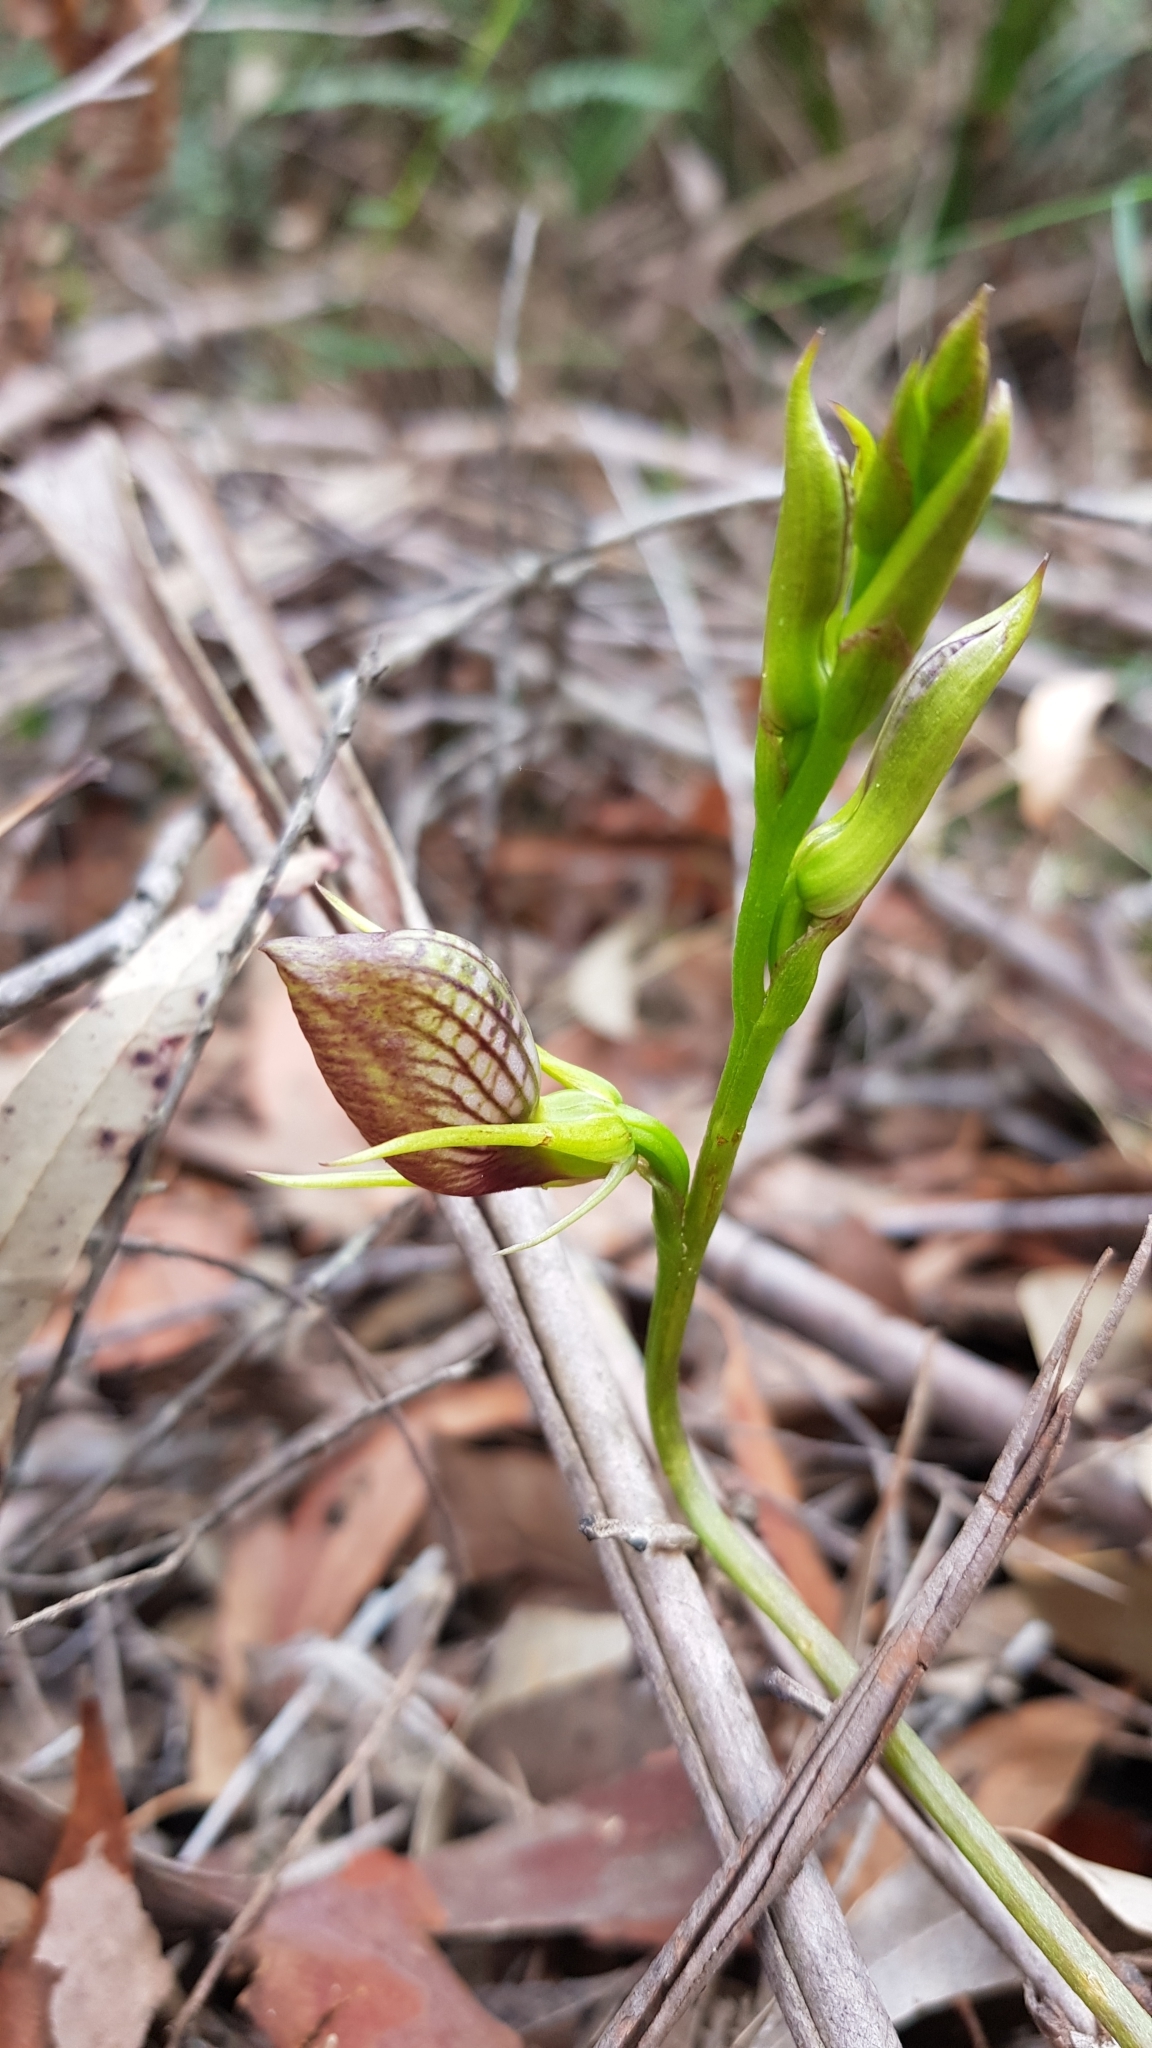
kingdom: Plantae
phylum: Tracheophyta
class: Liliopsida
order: Asparagales
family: Orchidaceae
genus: Cryptostylis
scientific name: Cryptostylis erecta
